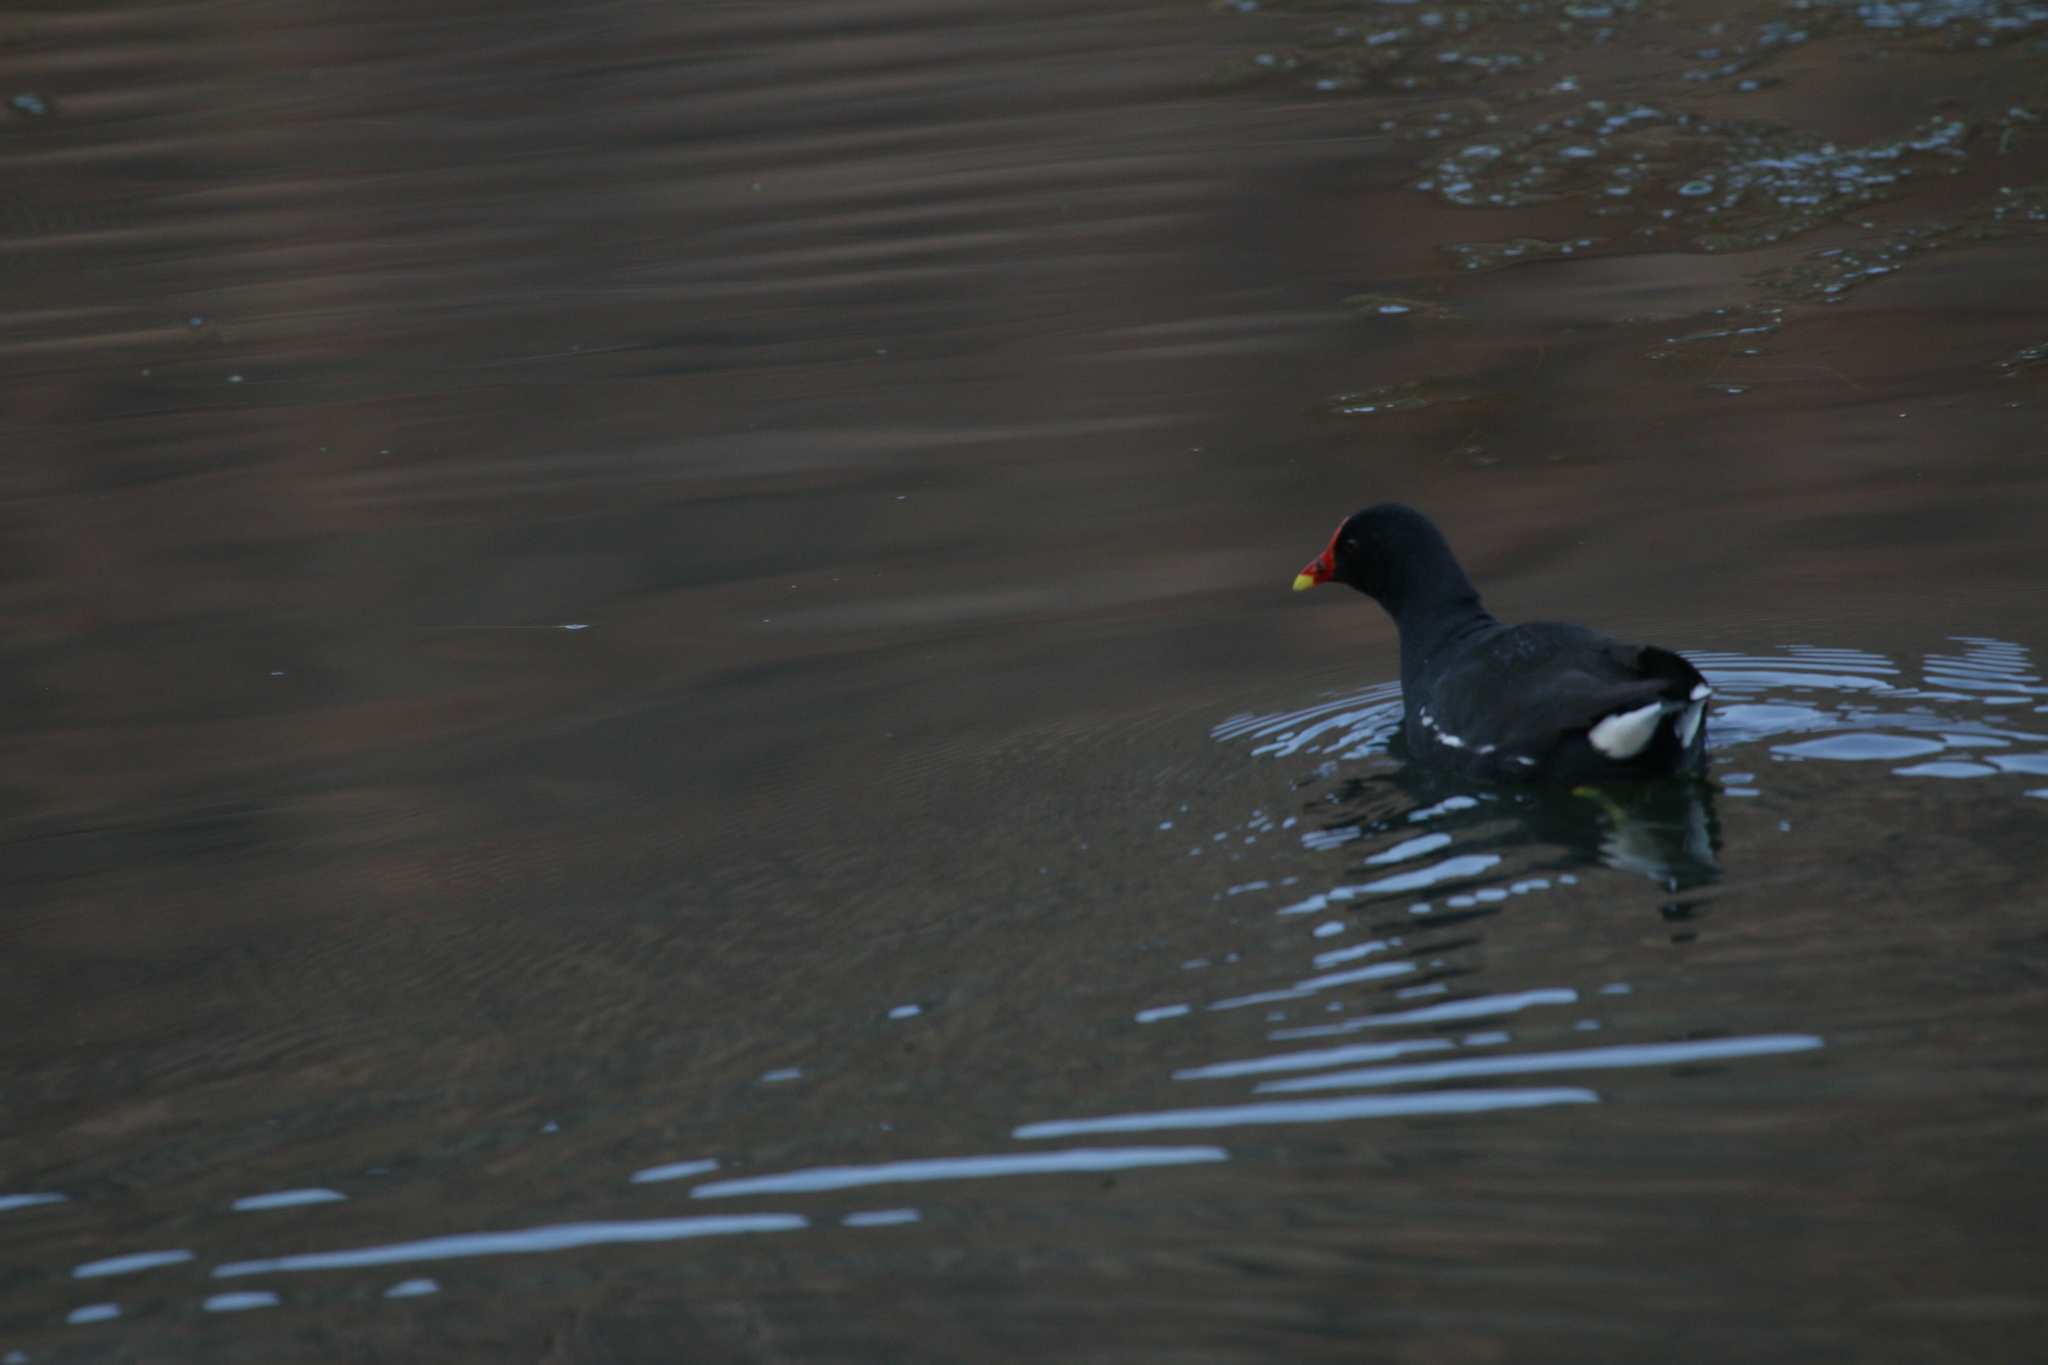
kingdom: Animalia
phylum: Chordata
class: Aves
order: Gruiformes
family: Rallidae
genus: Gallinula
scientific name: Gallinula chloropus
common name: Common moorhen
